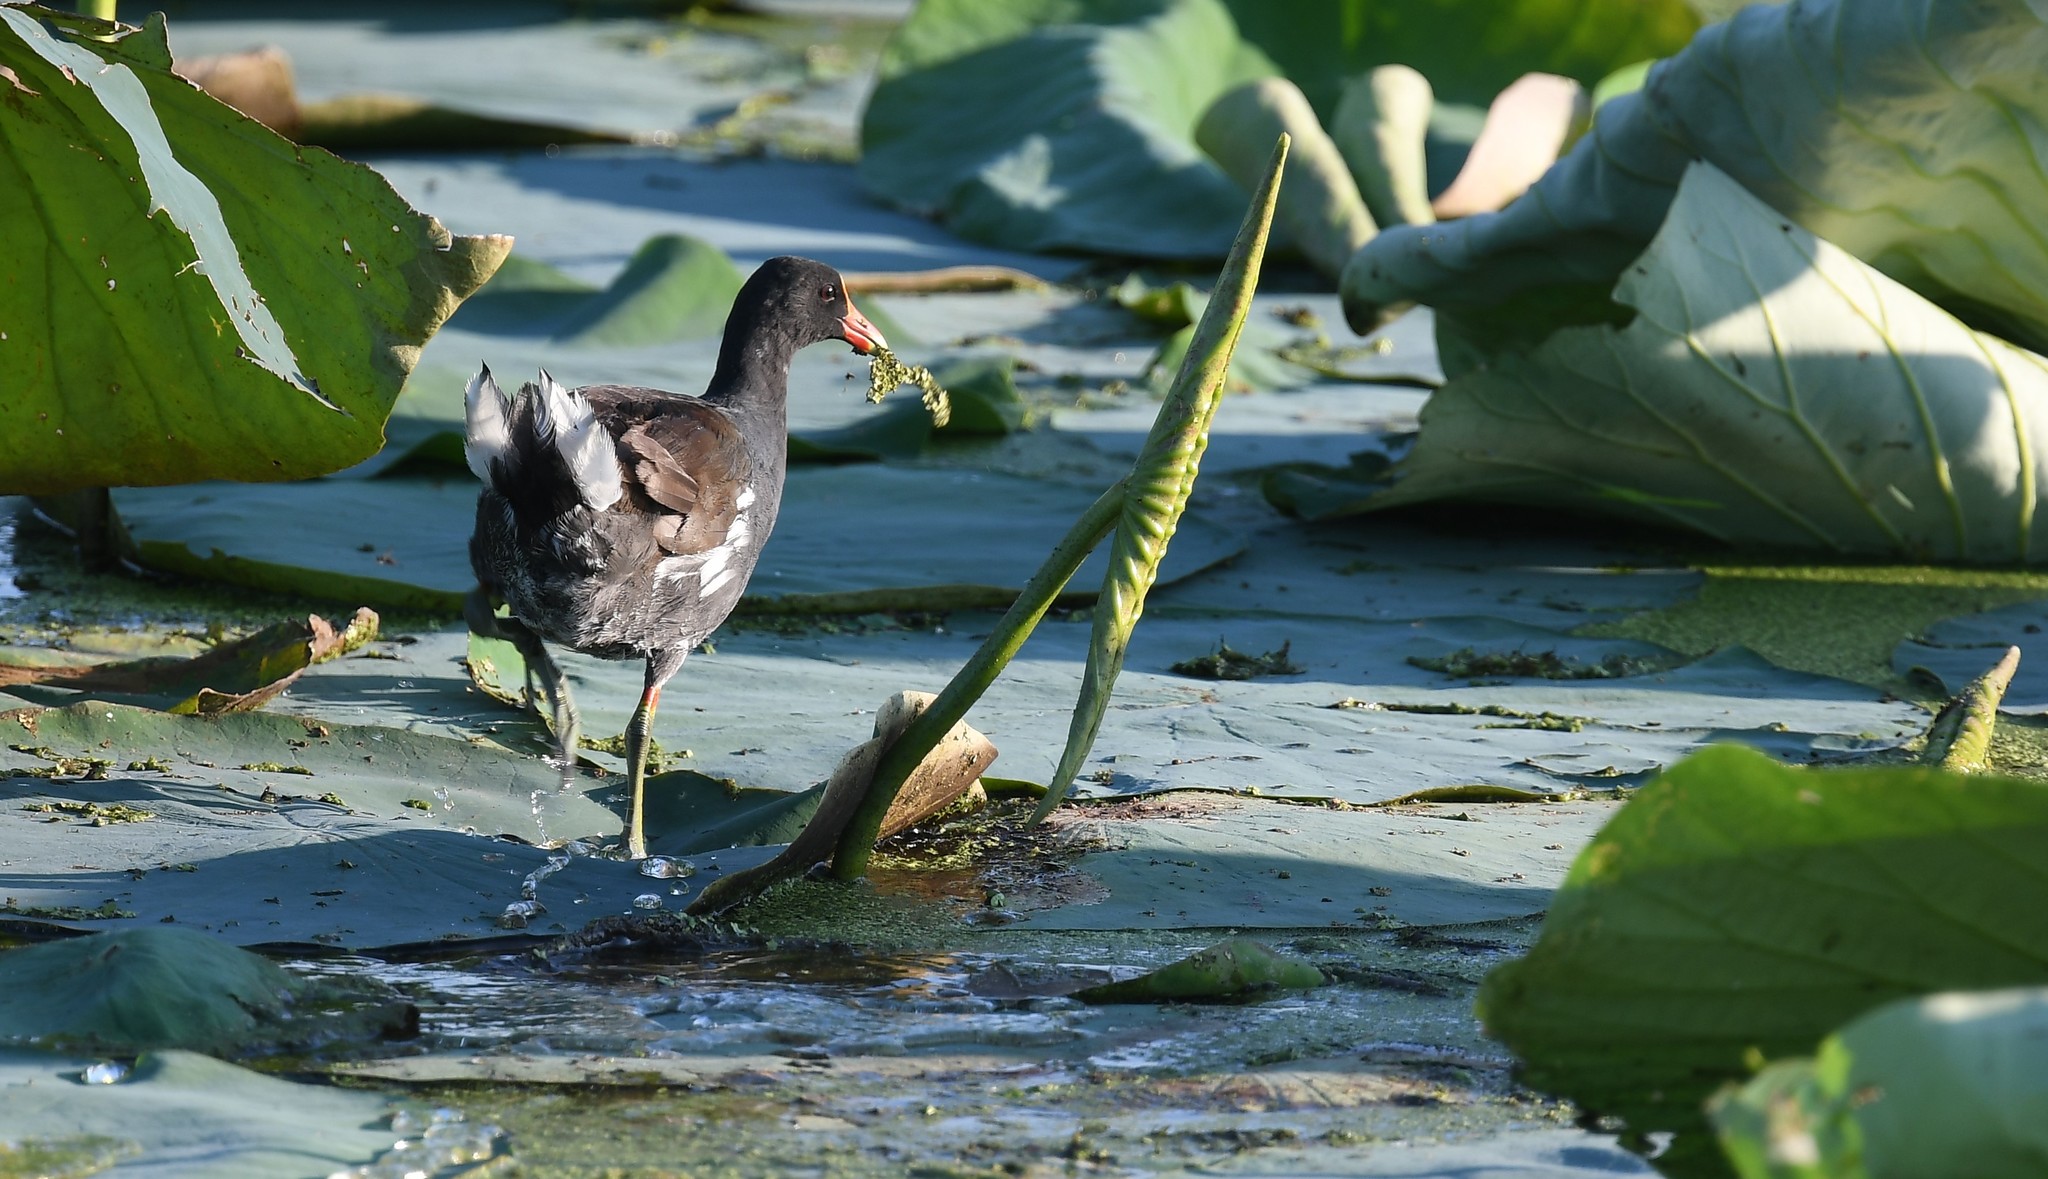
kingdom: Animalia
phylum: Chordata
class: Aves
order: Gruiformes
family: Rallidae
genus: Gallinula
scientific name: Gallinula chloropus
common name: Common moorhen
